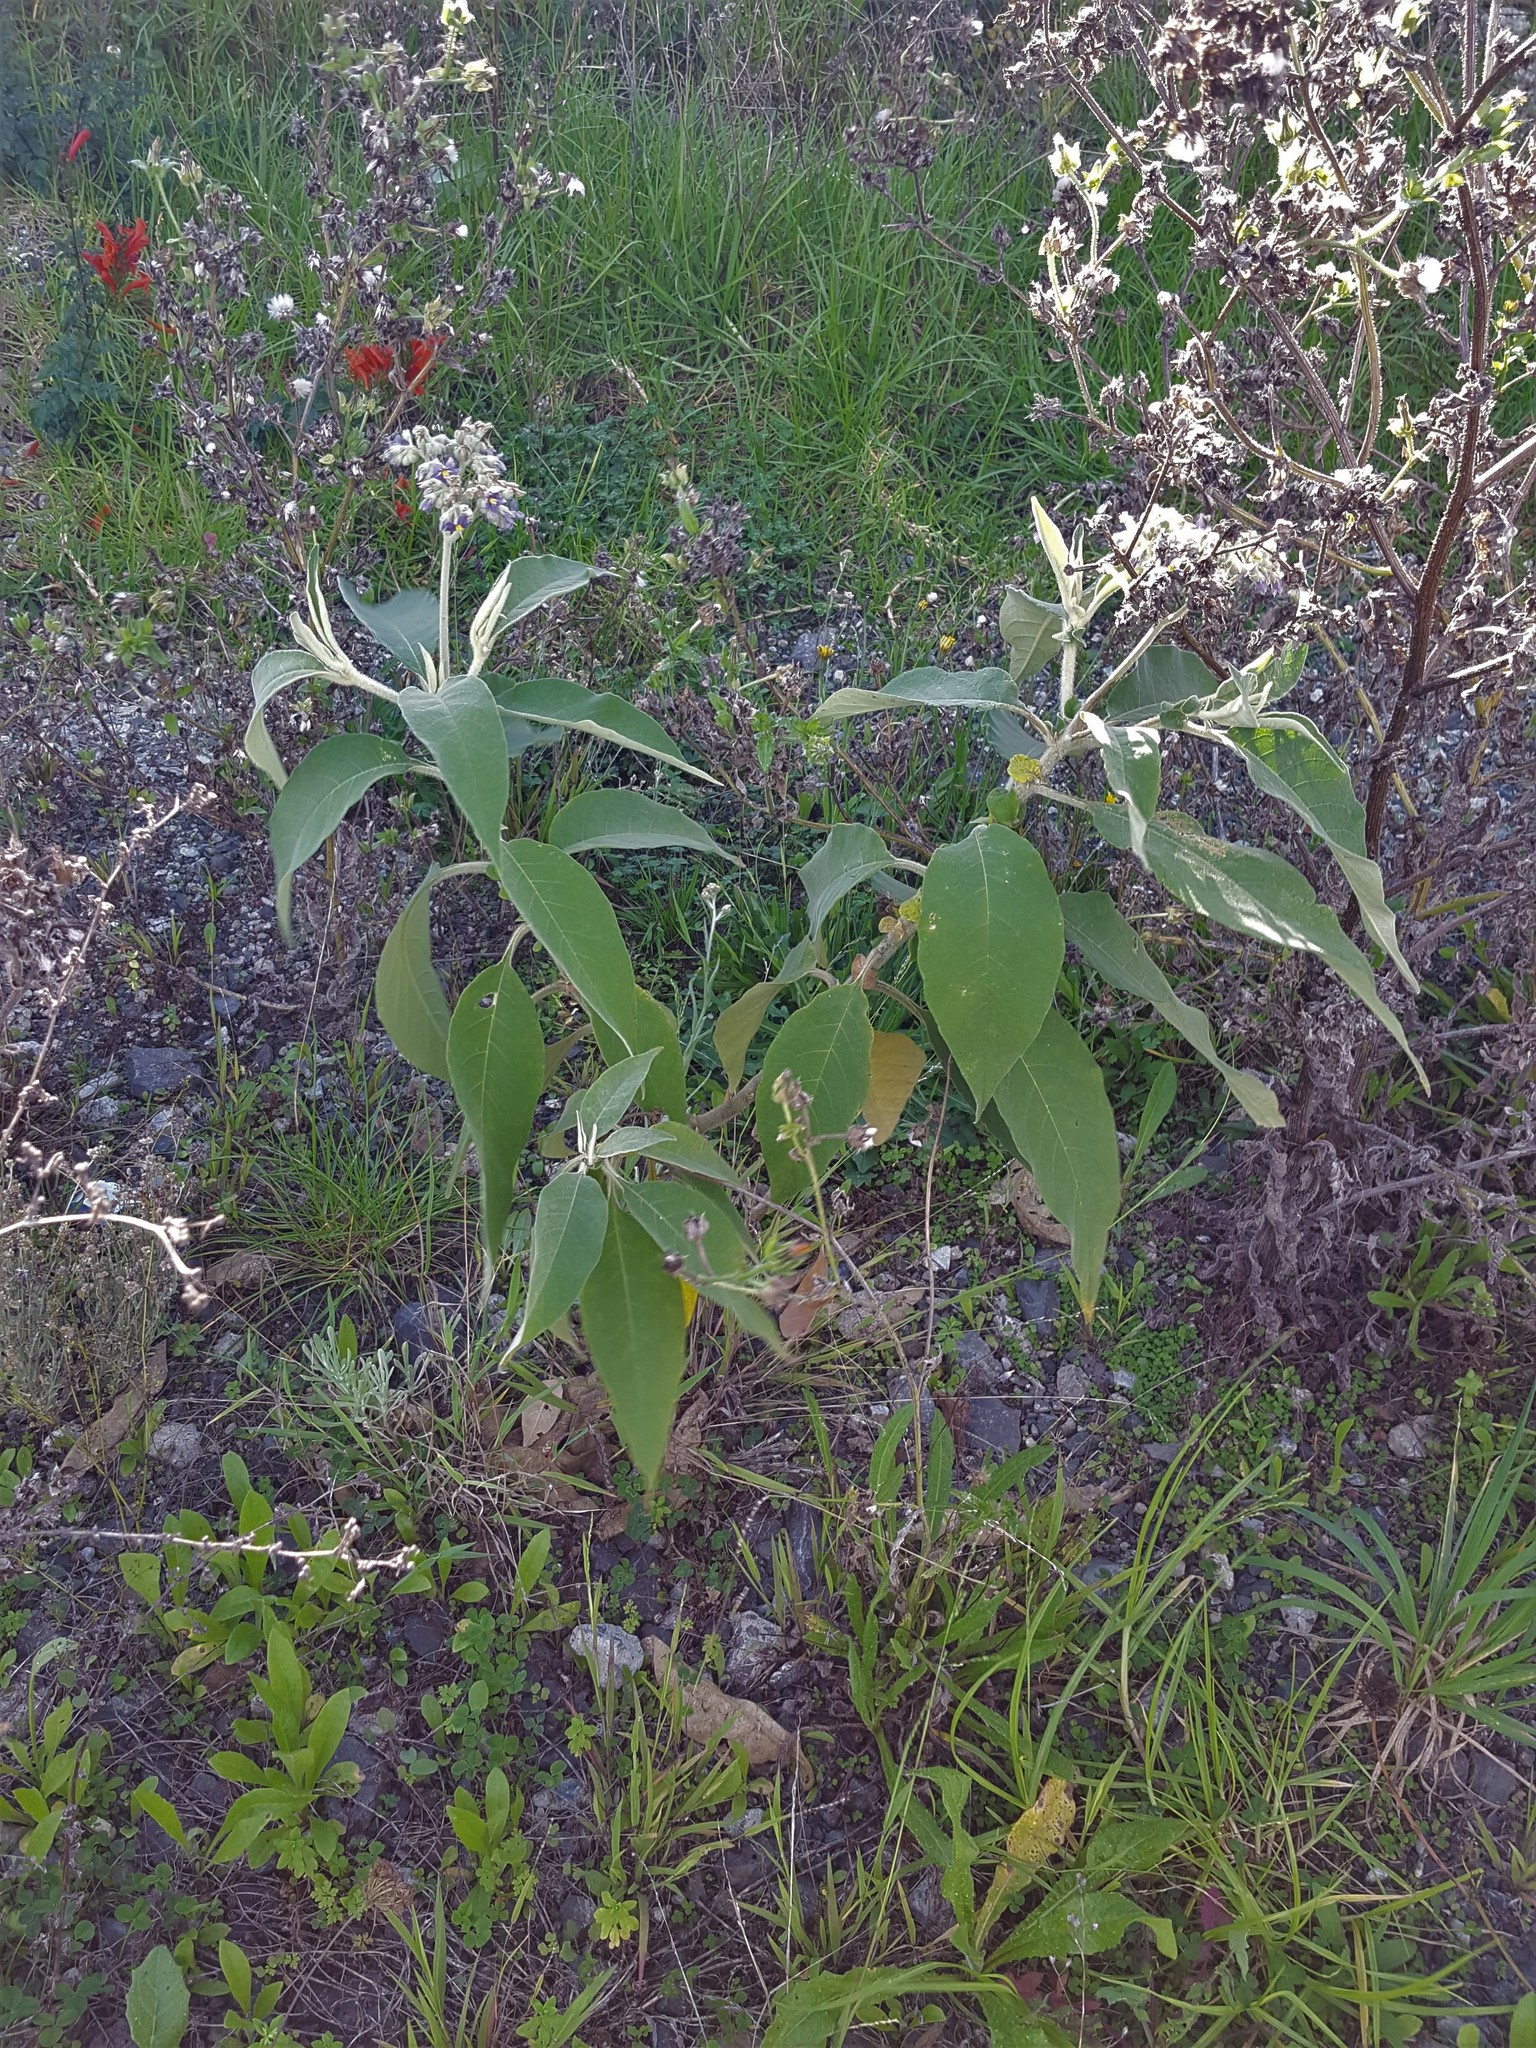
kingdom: Plantae
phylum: Tracheophyta
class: Magnoliopsida
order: Solanales
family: Solanaceae
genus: Solanum
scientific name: Solanum mauritianum
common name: Earleaf nightshade
